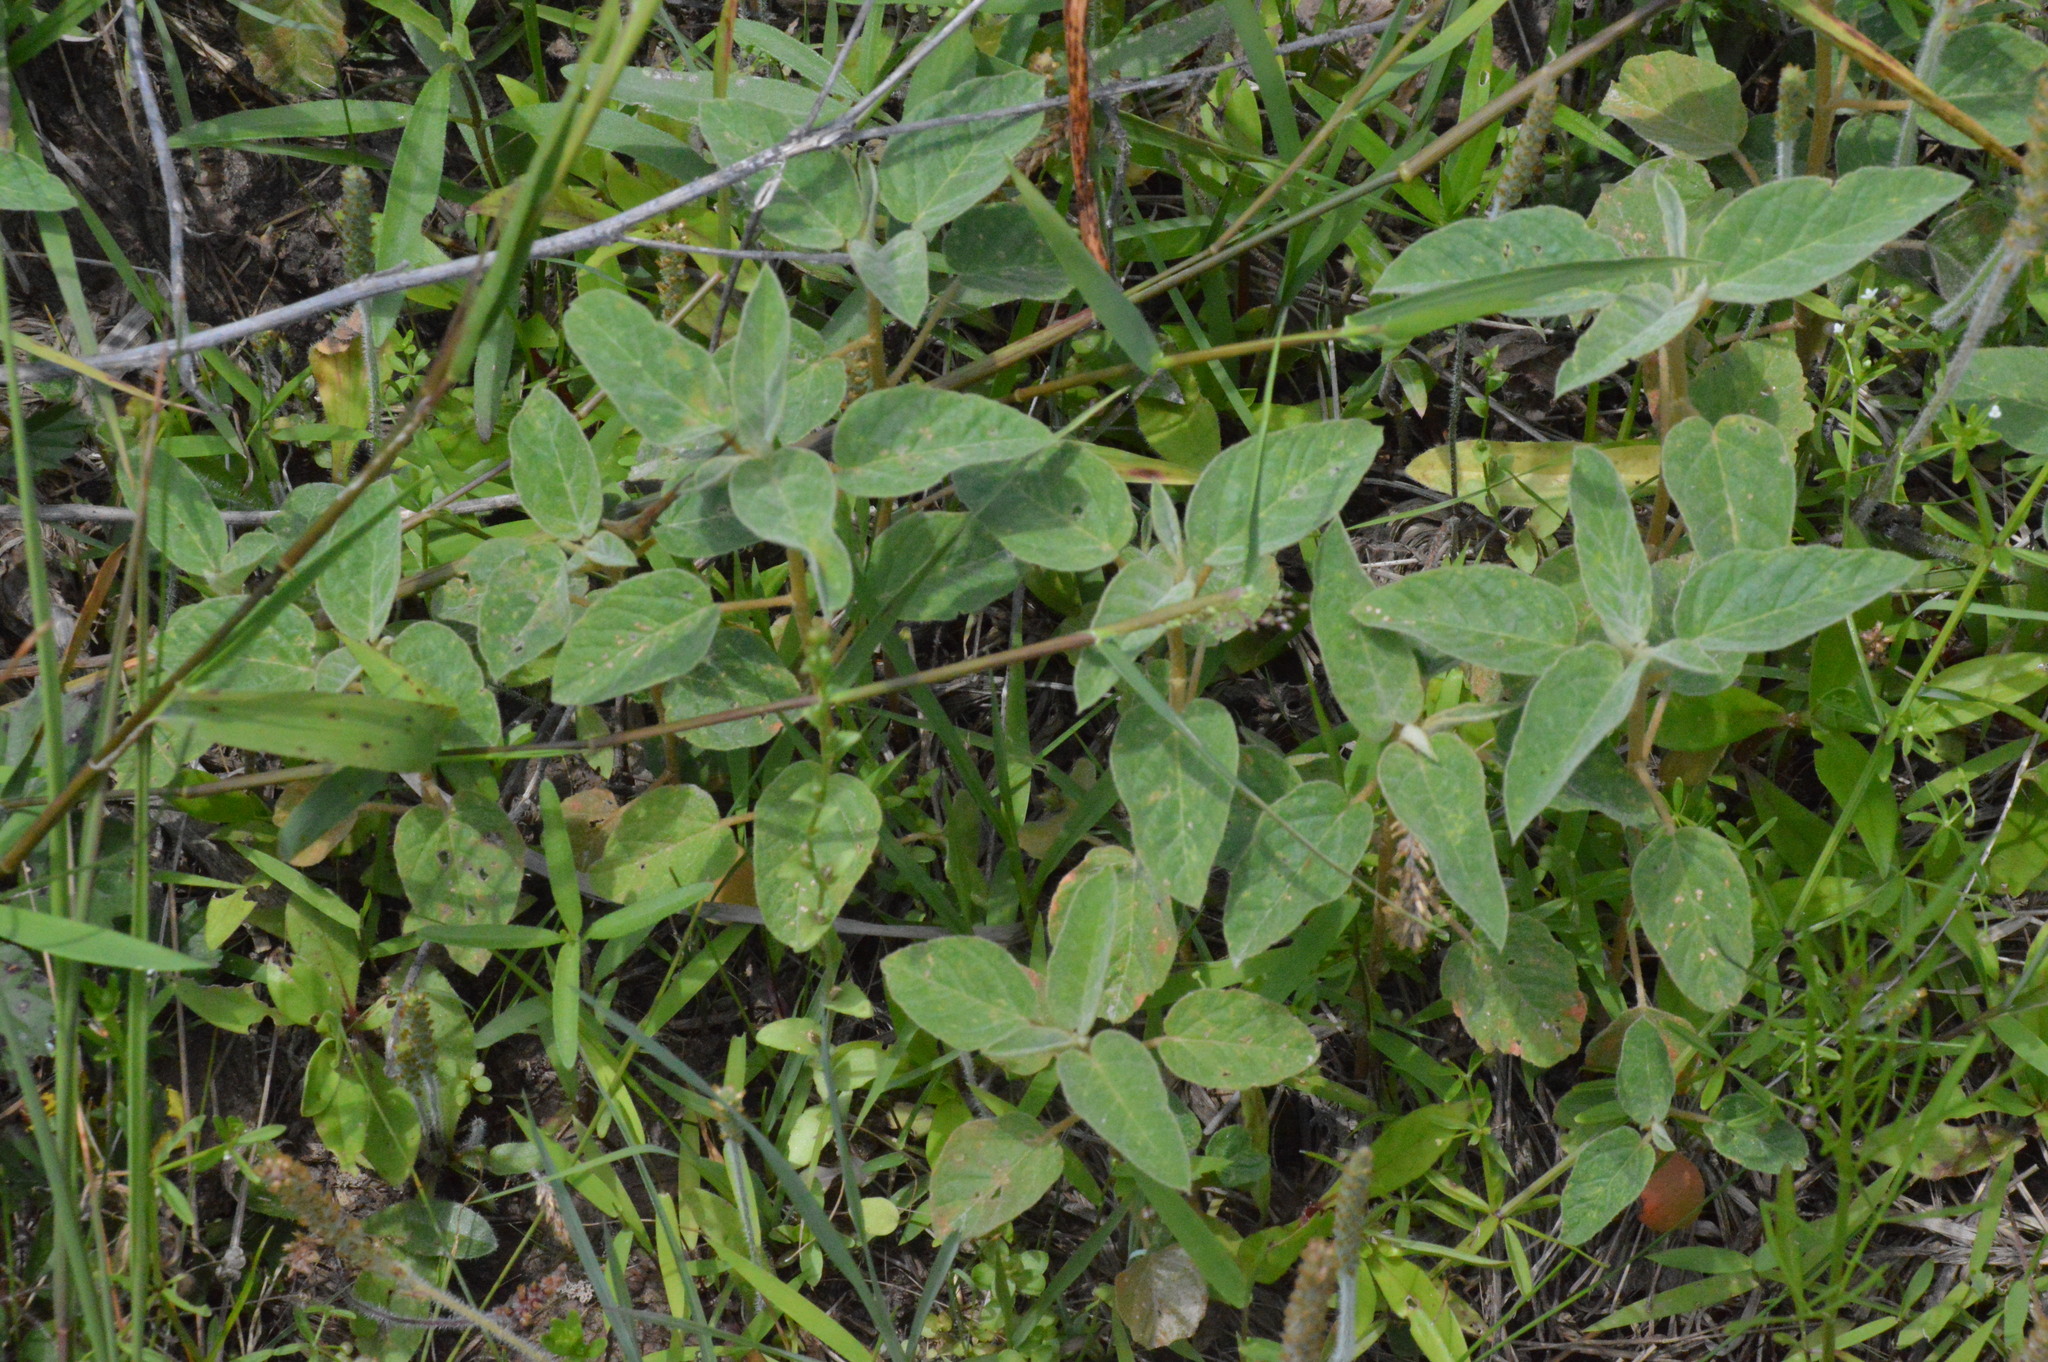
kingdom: Plantae
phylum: Tracheophyta
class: Magnoliopsida
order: Malpighiales
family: Euphorbiaceae
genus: Croton
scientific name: Croton lindheimeri
